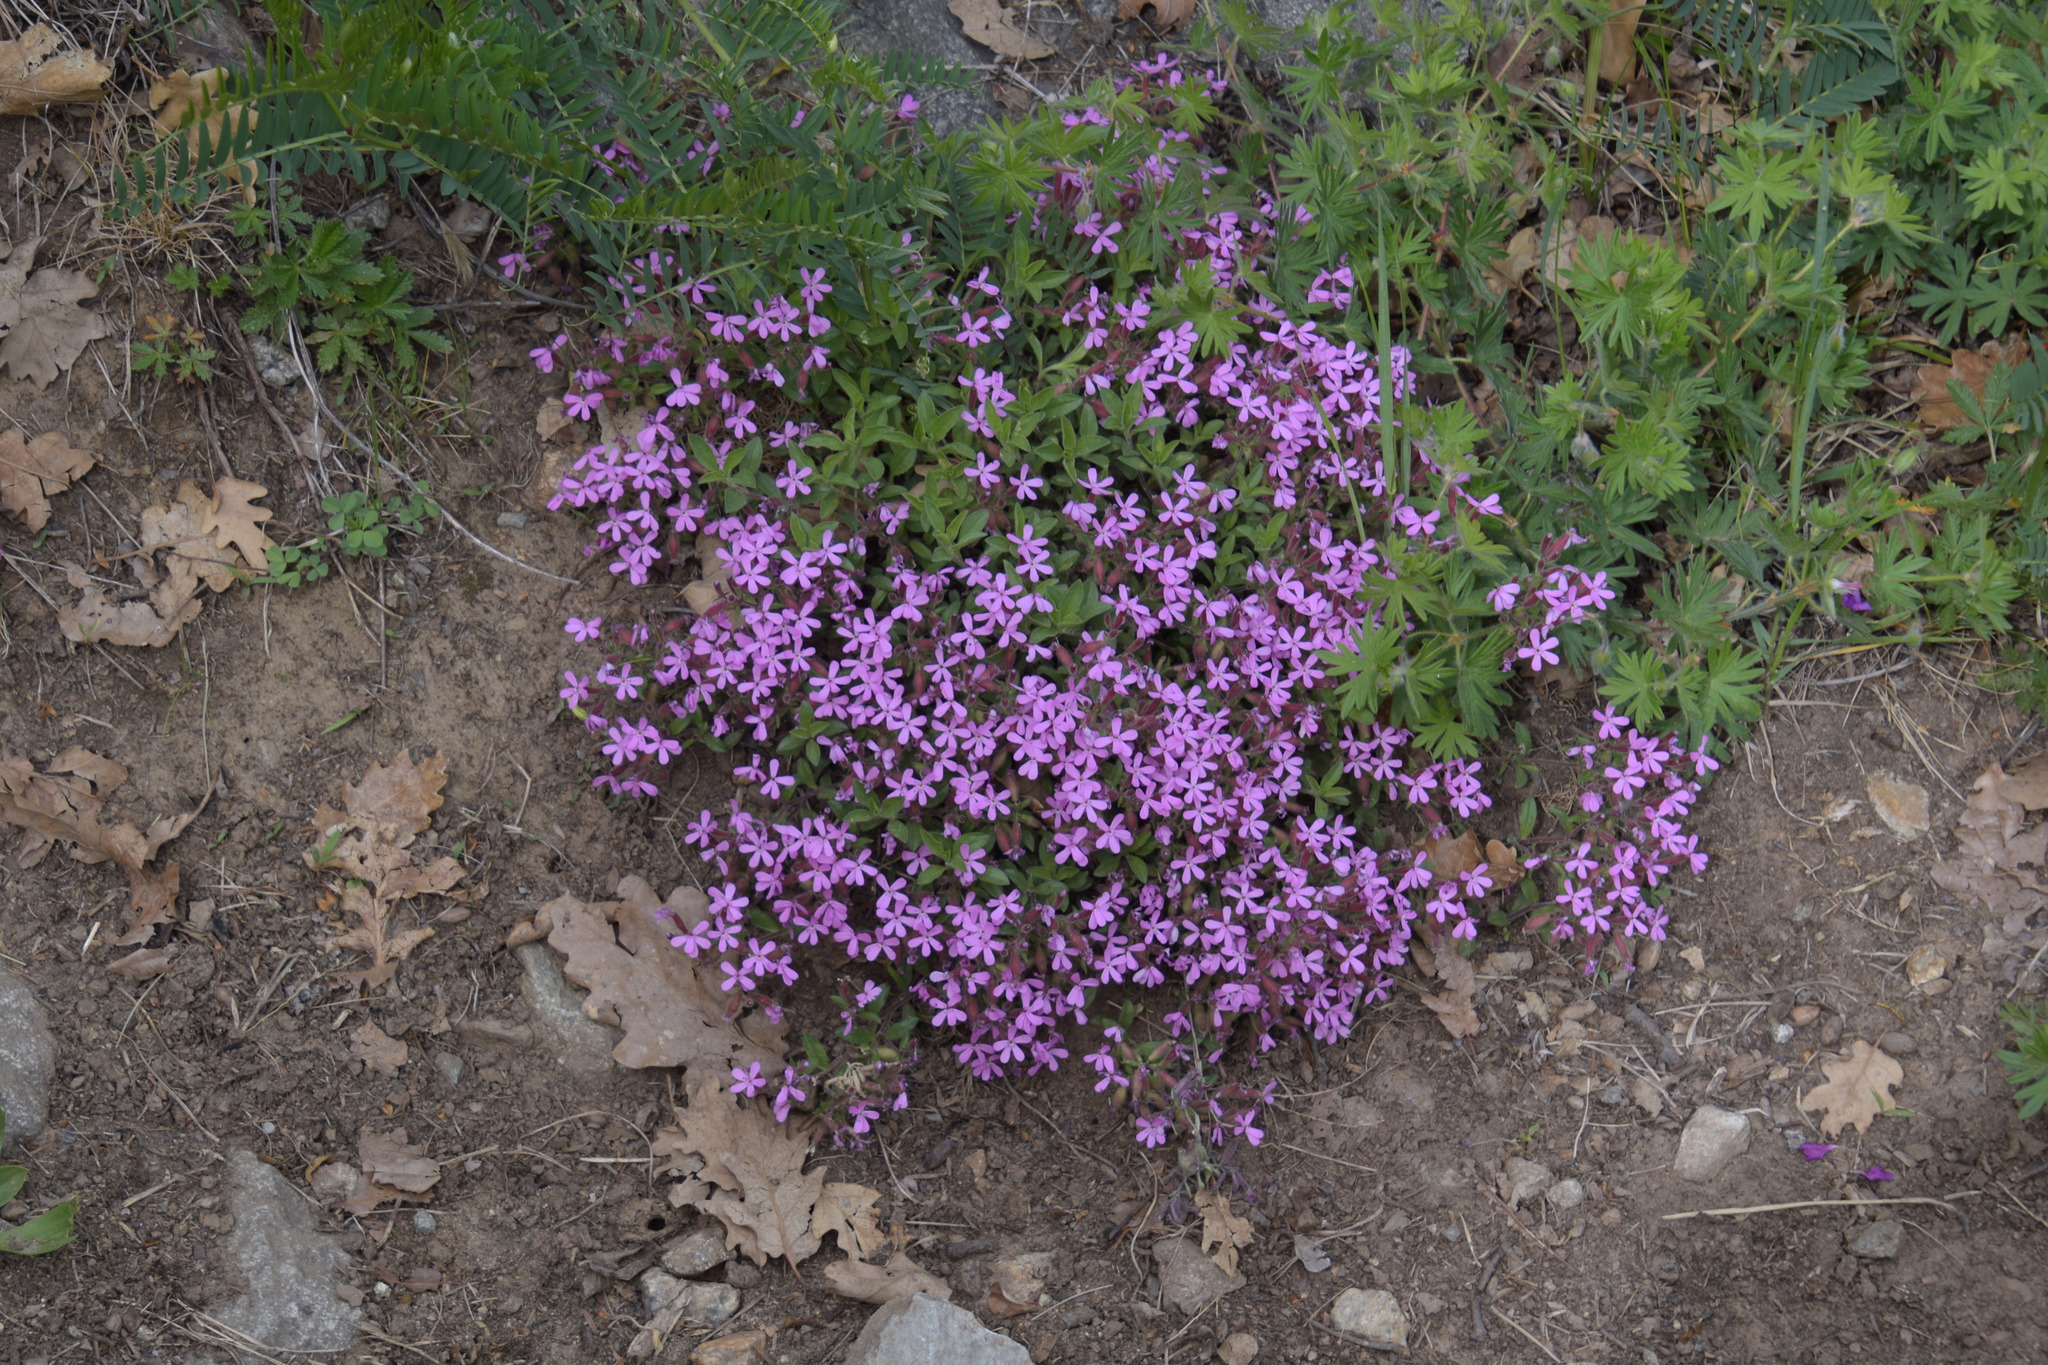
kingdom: Plantae
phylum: Tracheophyta
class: Magnoliopsida
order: Caryophyllales
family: Caryophyllaceae
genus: Saponaria
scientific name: Saponaria ocymoides
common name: Rock soapwort
